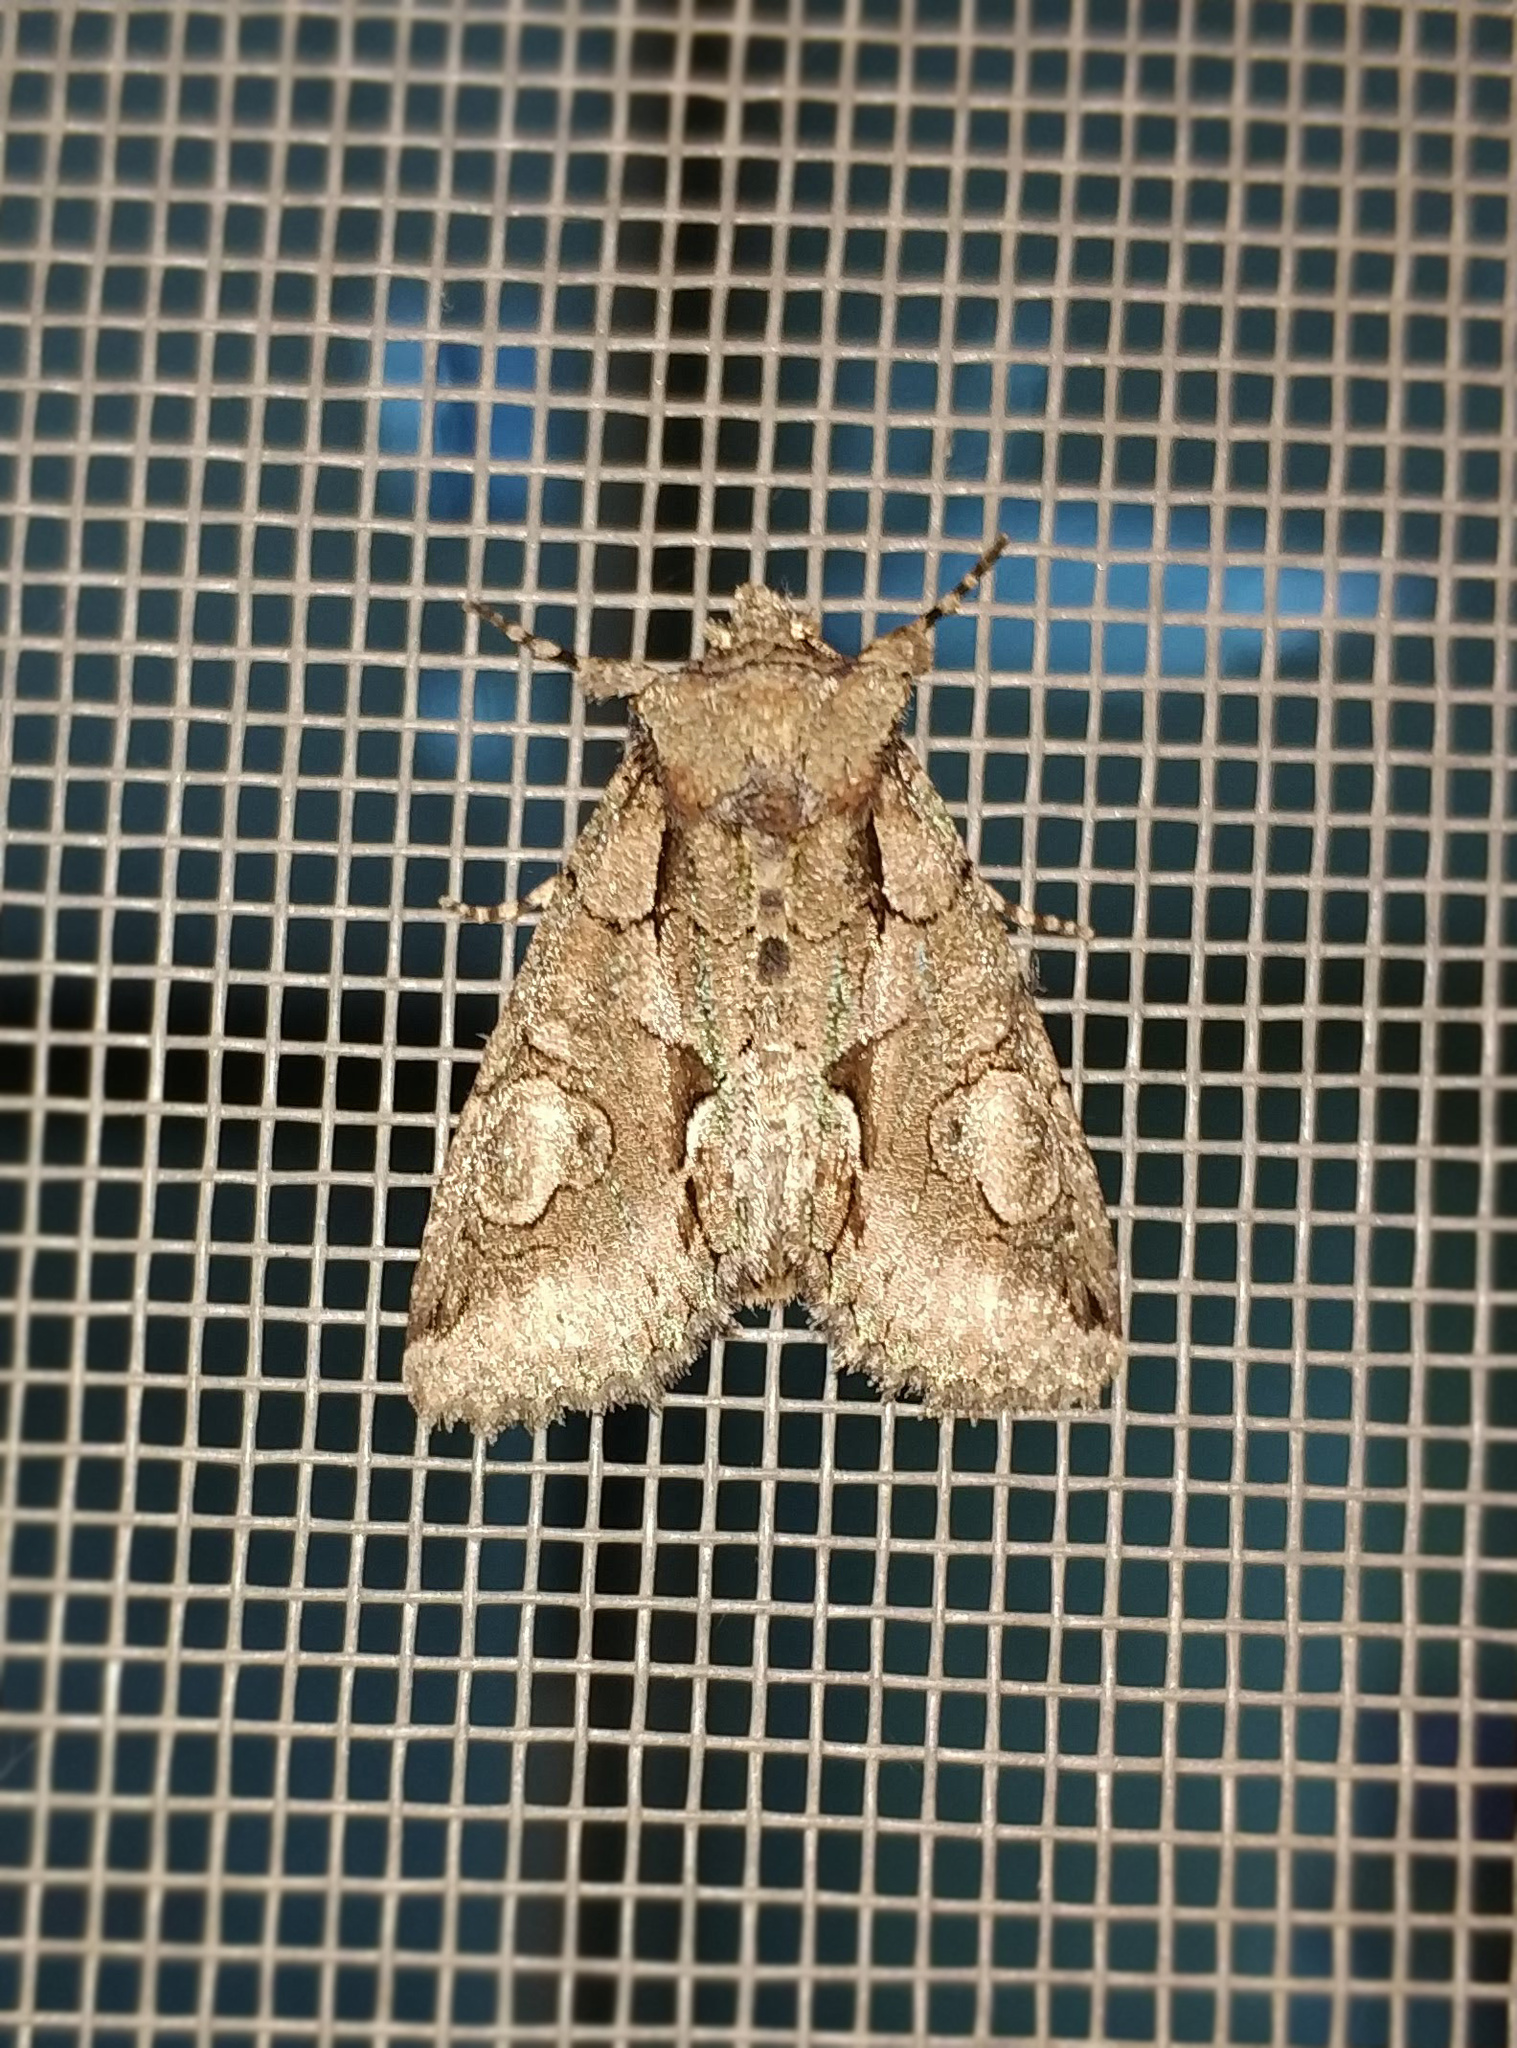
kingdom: Animalia
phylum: Arthropoda
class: Insecta
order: Lepidoptera
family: Noctuidae
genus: Allophyes
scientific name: Allophyes oxyacanthae
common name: Green-brindled crescent
